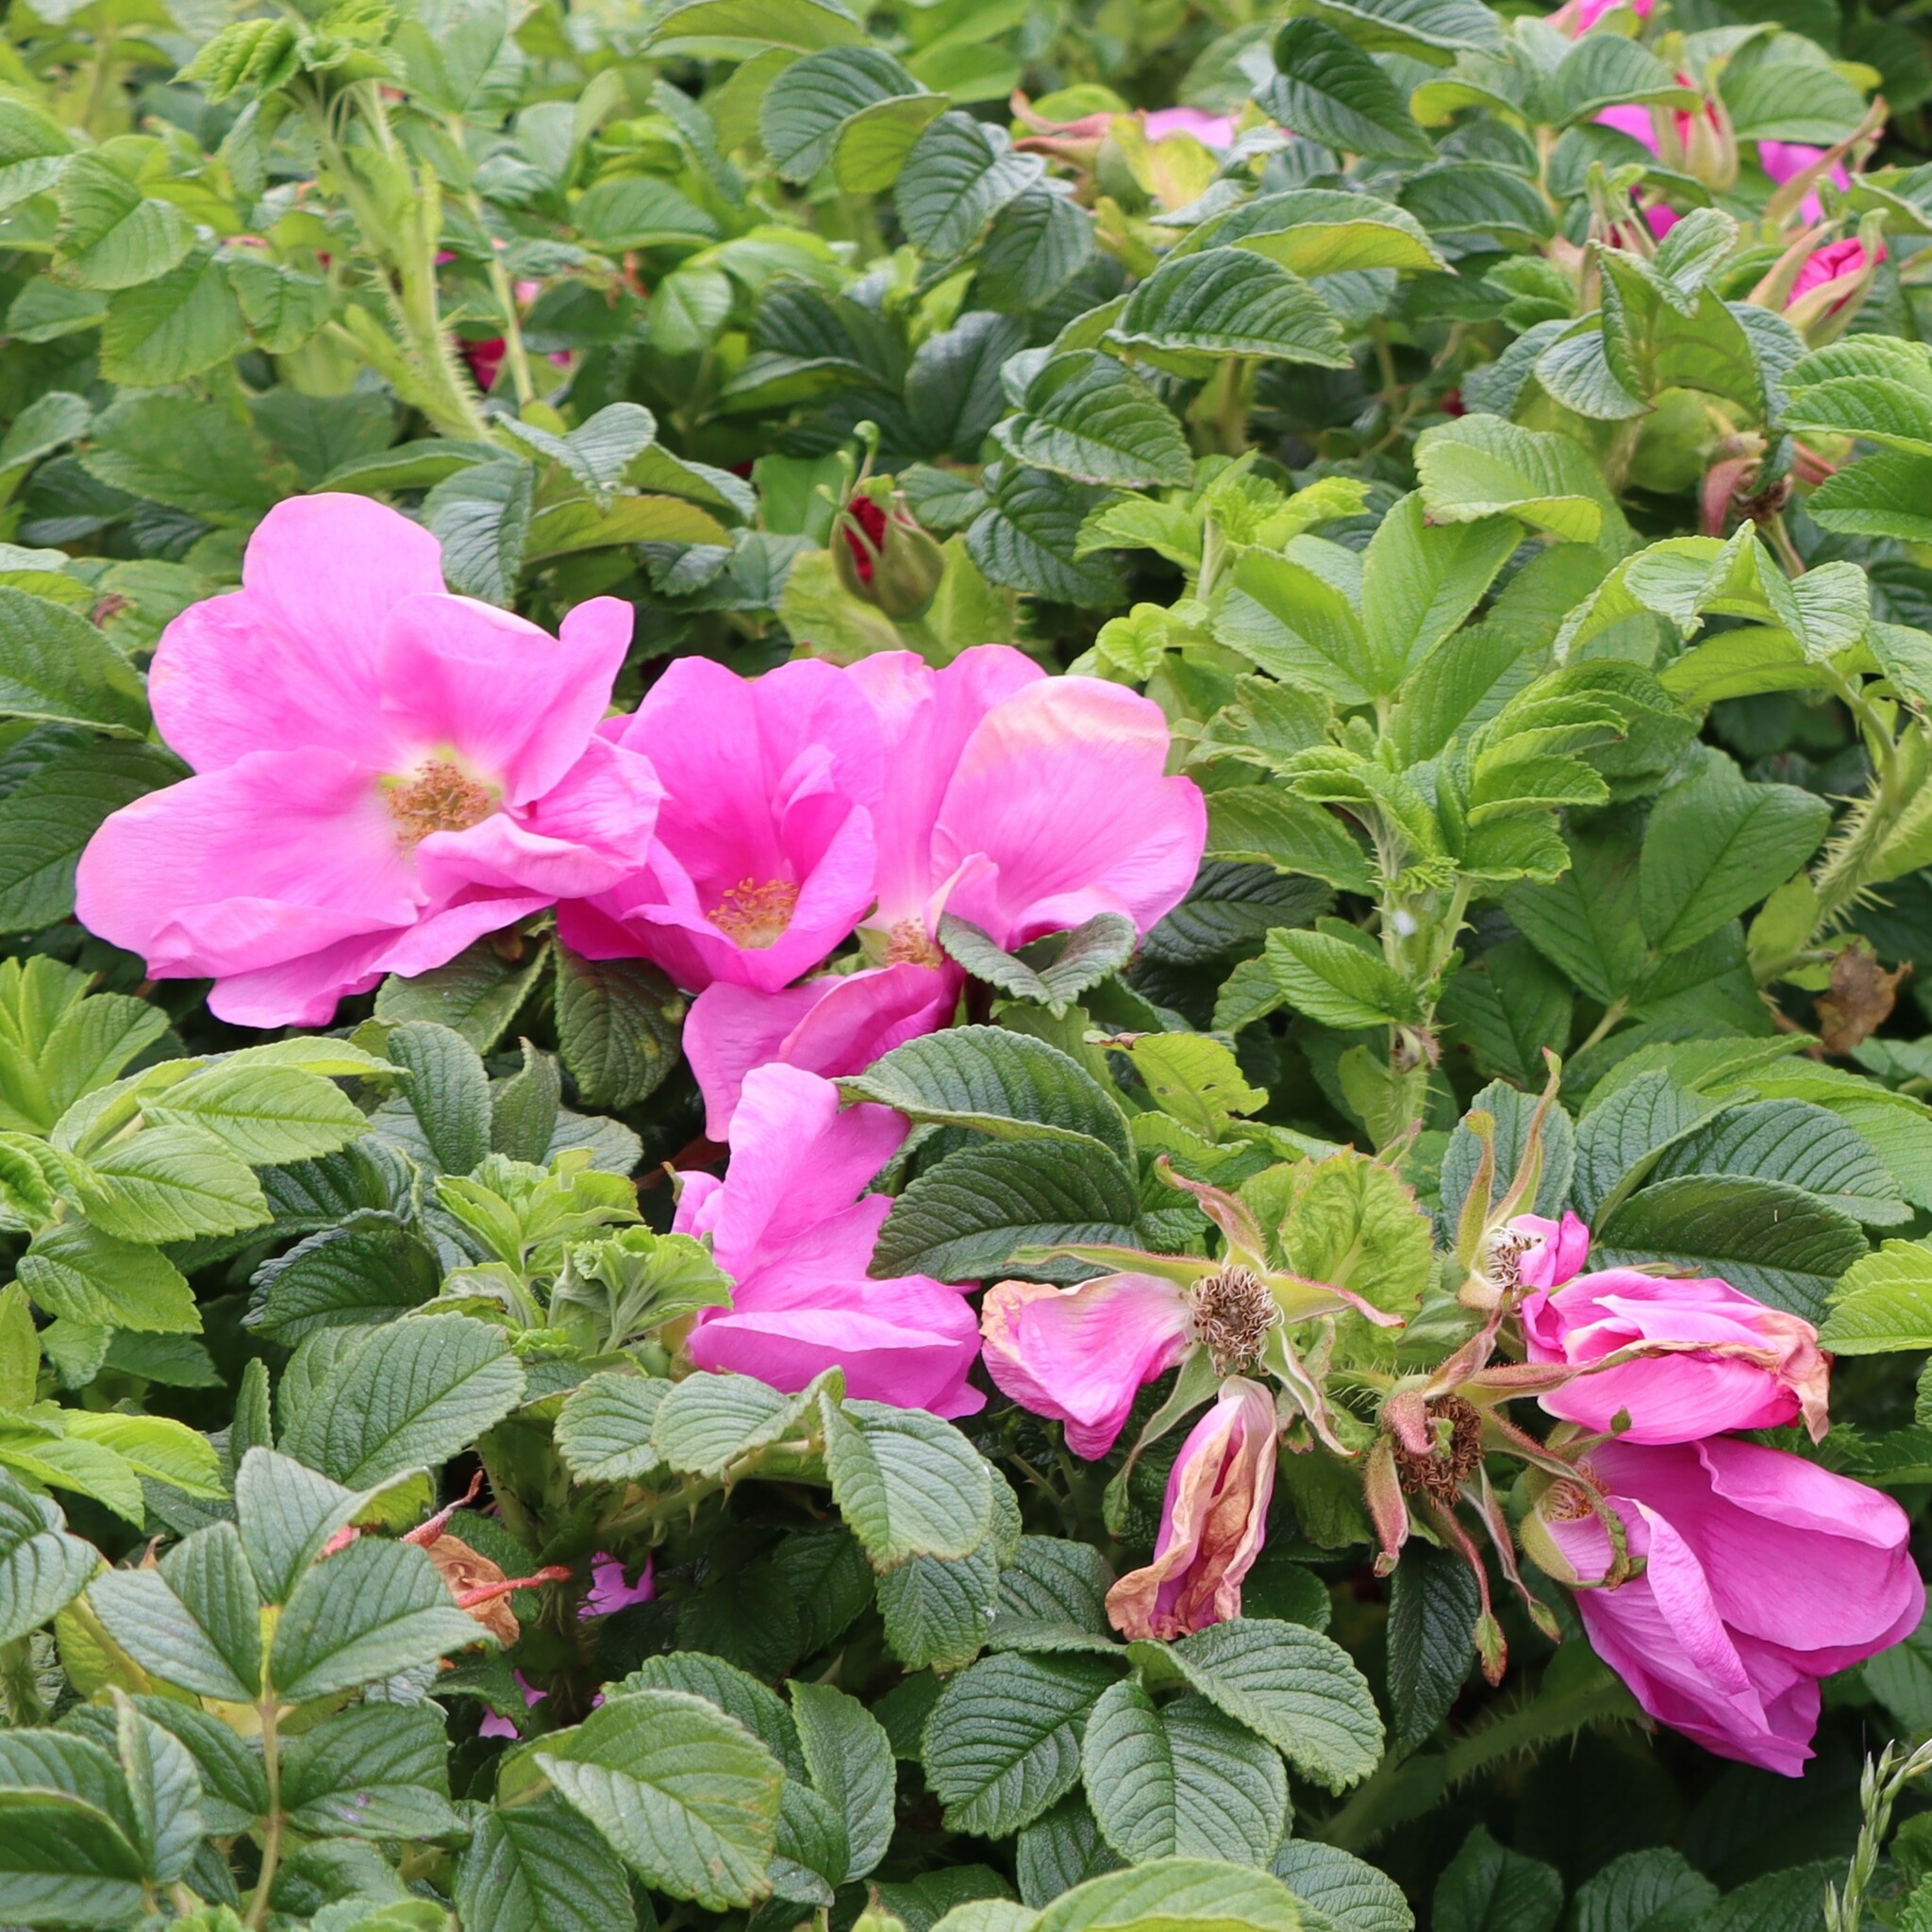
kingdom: Plantae
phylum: Tracheophyta
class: Magnoliopsida
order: Rosales
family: Rosaceae
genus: Rosa
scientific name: Rosa rugosa
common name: Japanese rose
